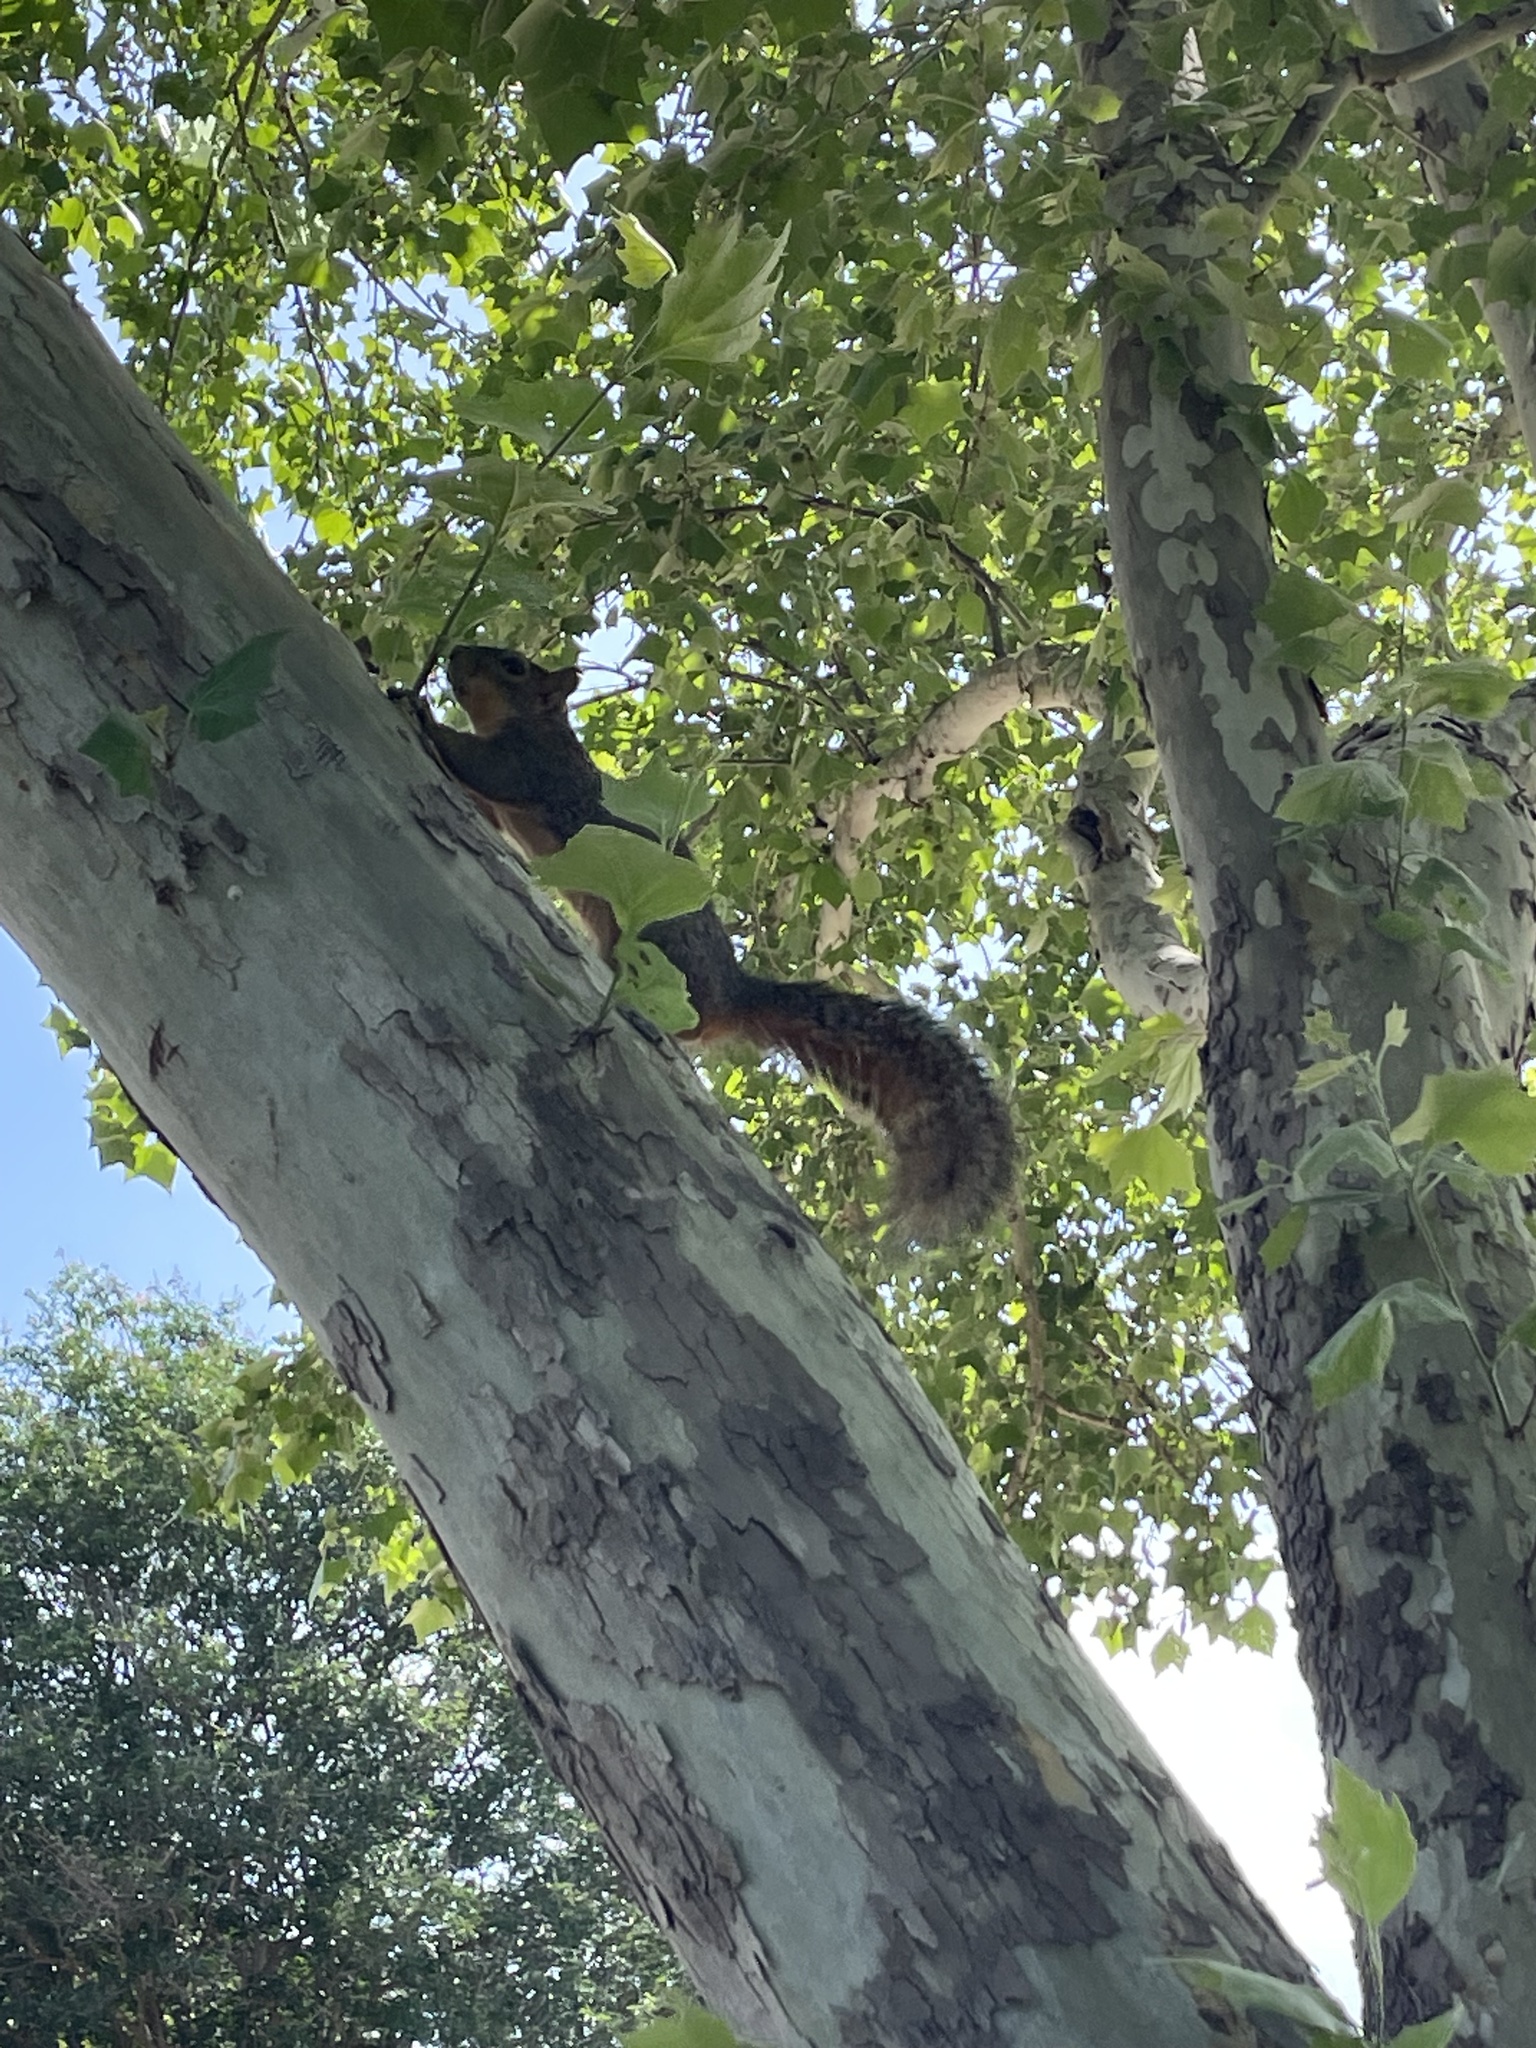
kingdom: Animalia
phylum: Chordata
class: Mammalia
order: Rodentia
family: Sciuridae
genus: Sciurus
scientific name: Sciurus niger
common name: Fox squirrel
